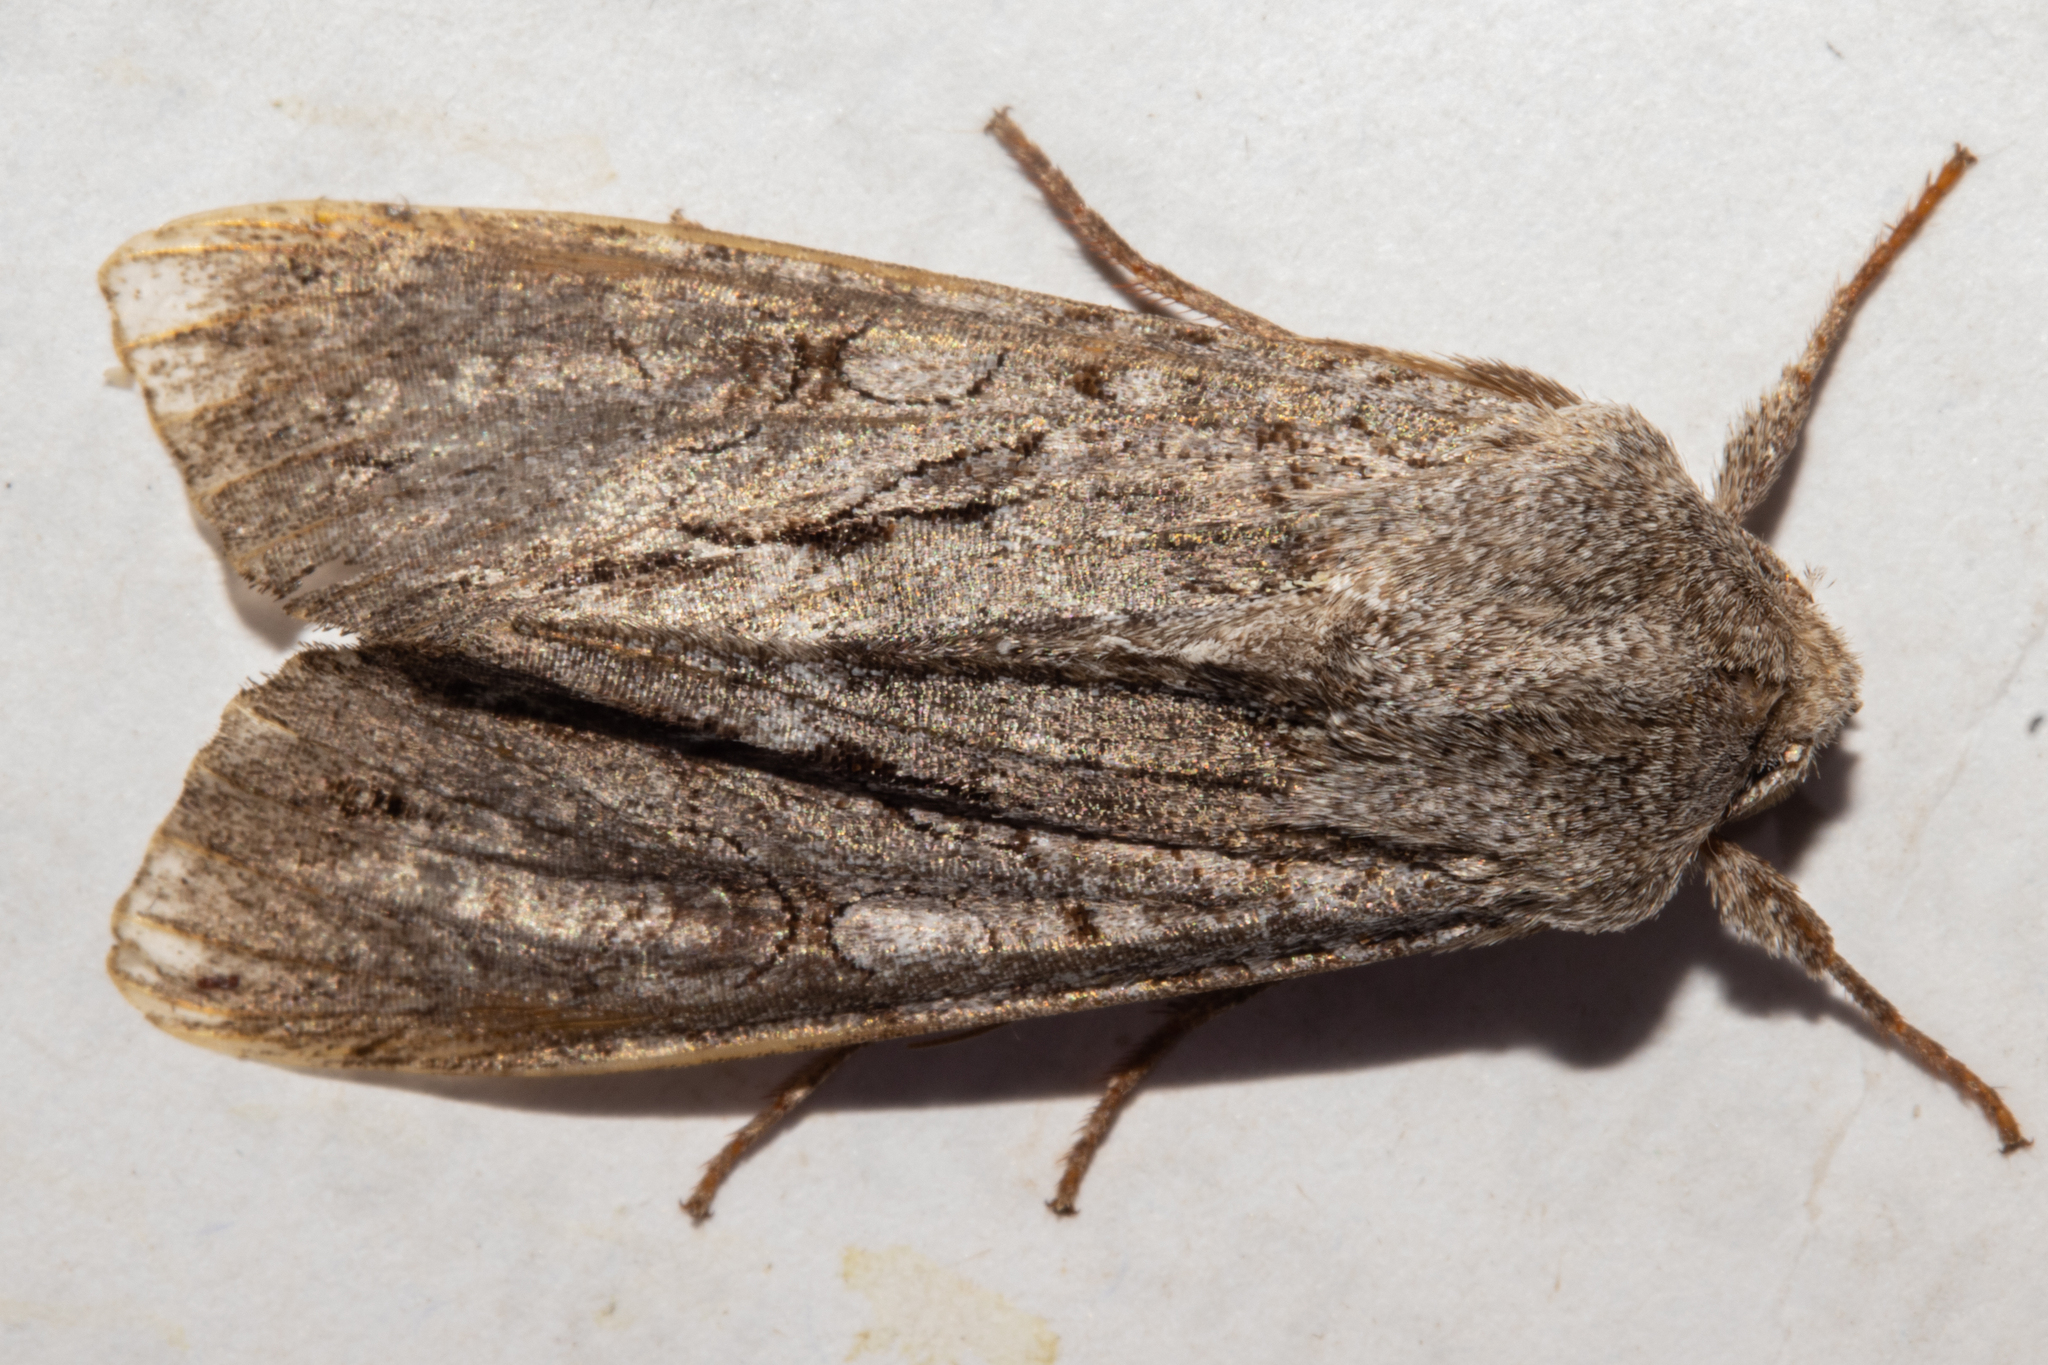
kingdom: Animalia
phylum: Arthropoda
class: Insecta
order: Lepidoptera
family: Noctuidae
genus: Ichneutica
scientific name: Ichneutica
